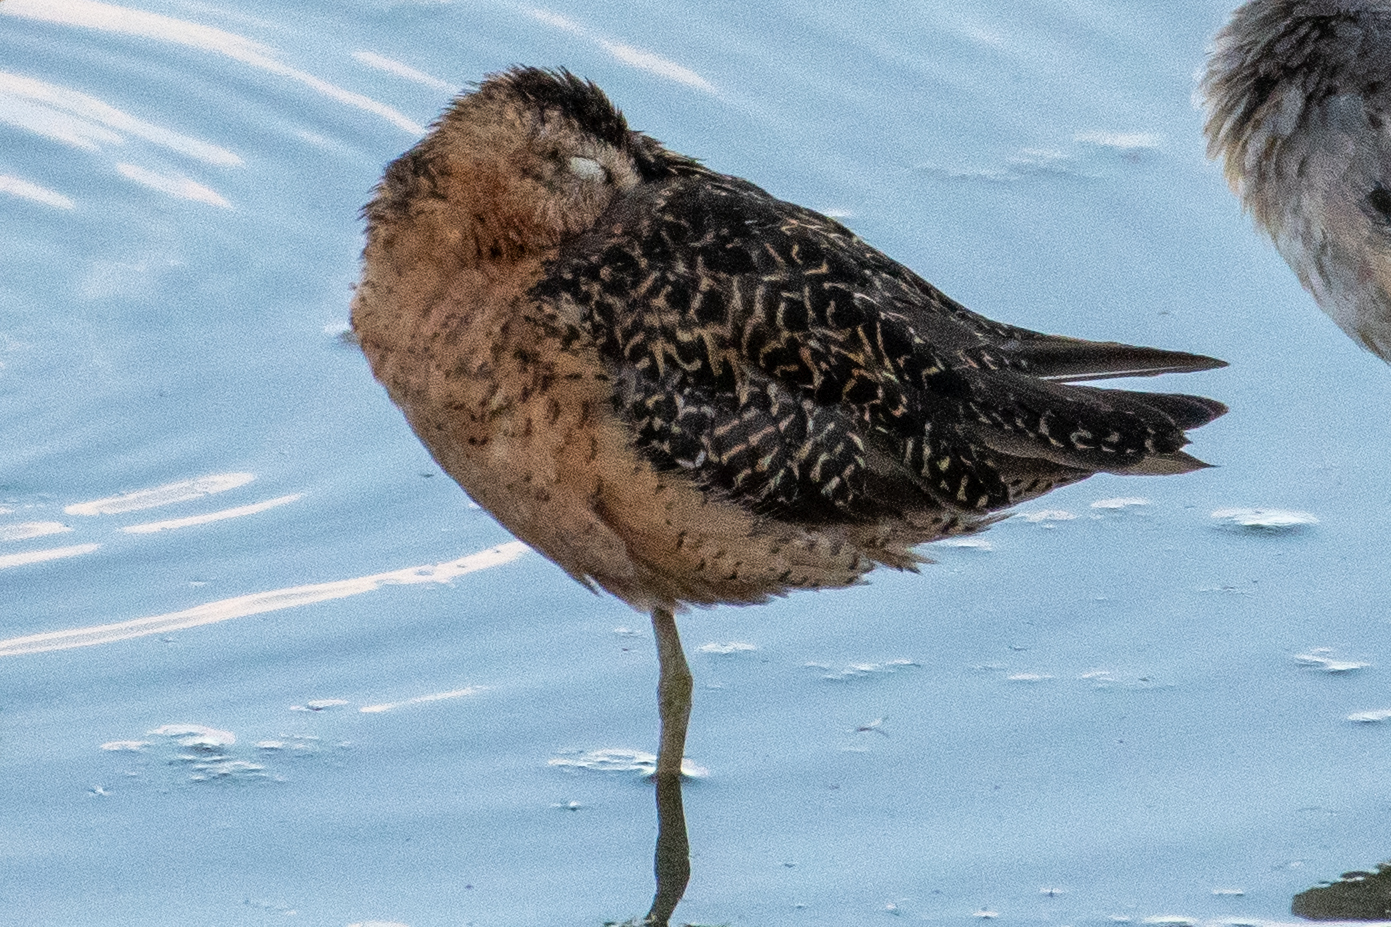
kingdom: Animalia
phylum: Chordata
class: Aves
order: Charadriiformes
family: Scolopacidae
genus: Limnodromus
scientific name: Limnodromus scolopaceus
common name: Long-billed dowitcher
